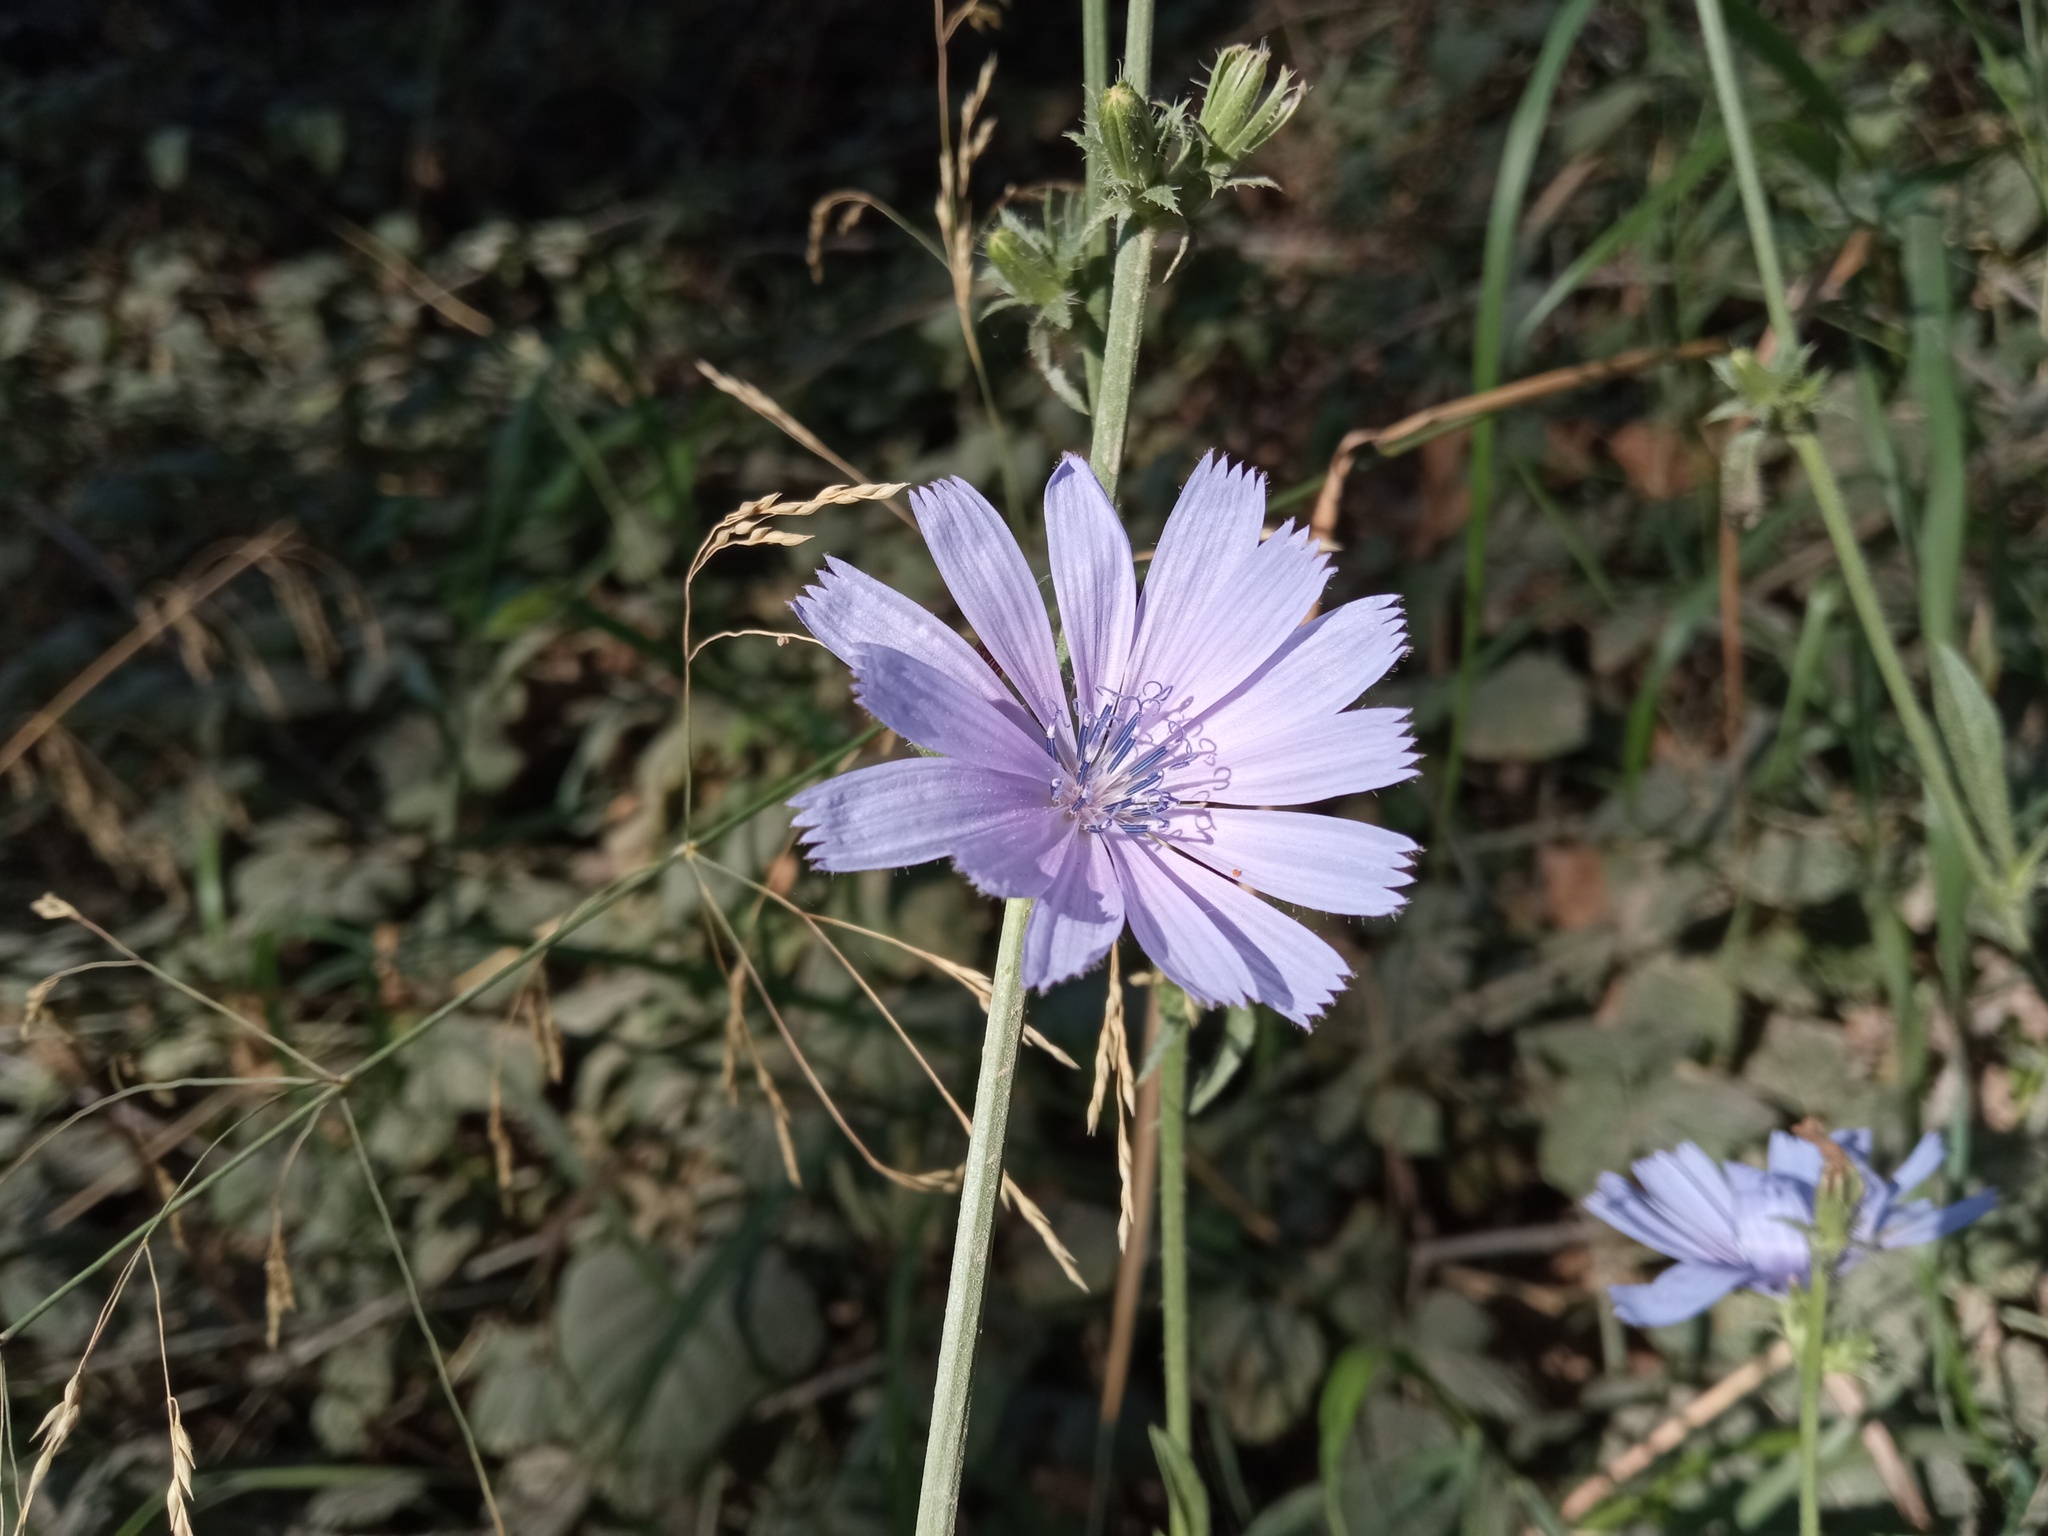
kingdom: Plantae
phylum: Tracheophyta
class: Magnoliopsida
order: Asterales
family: Asteraceae
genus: Cichorium
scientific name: Cichorium intybus
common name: Chicory
